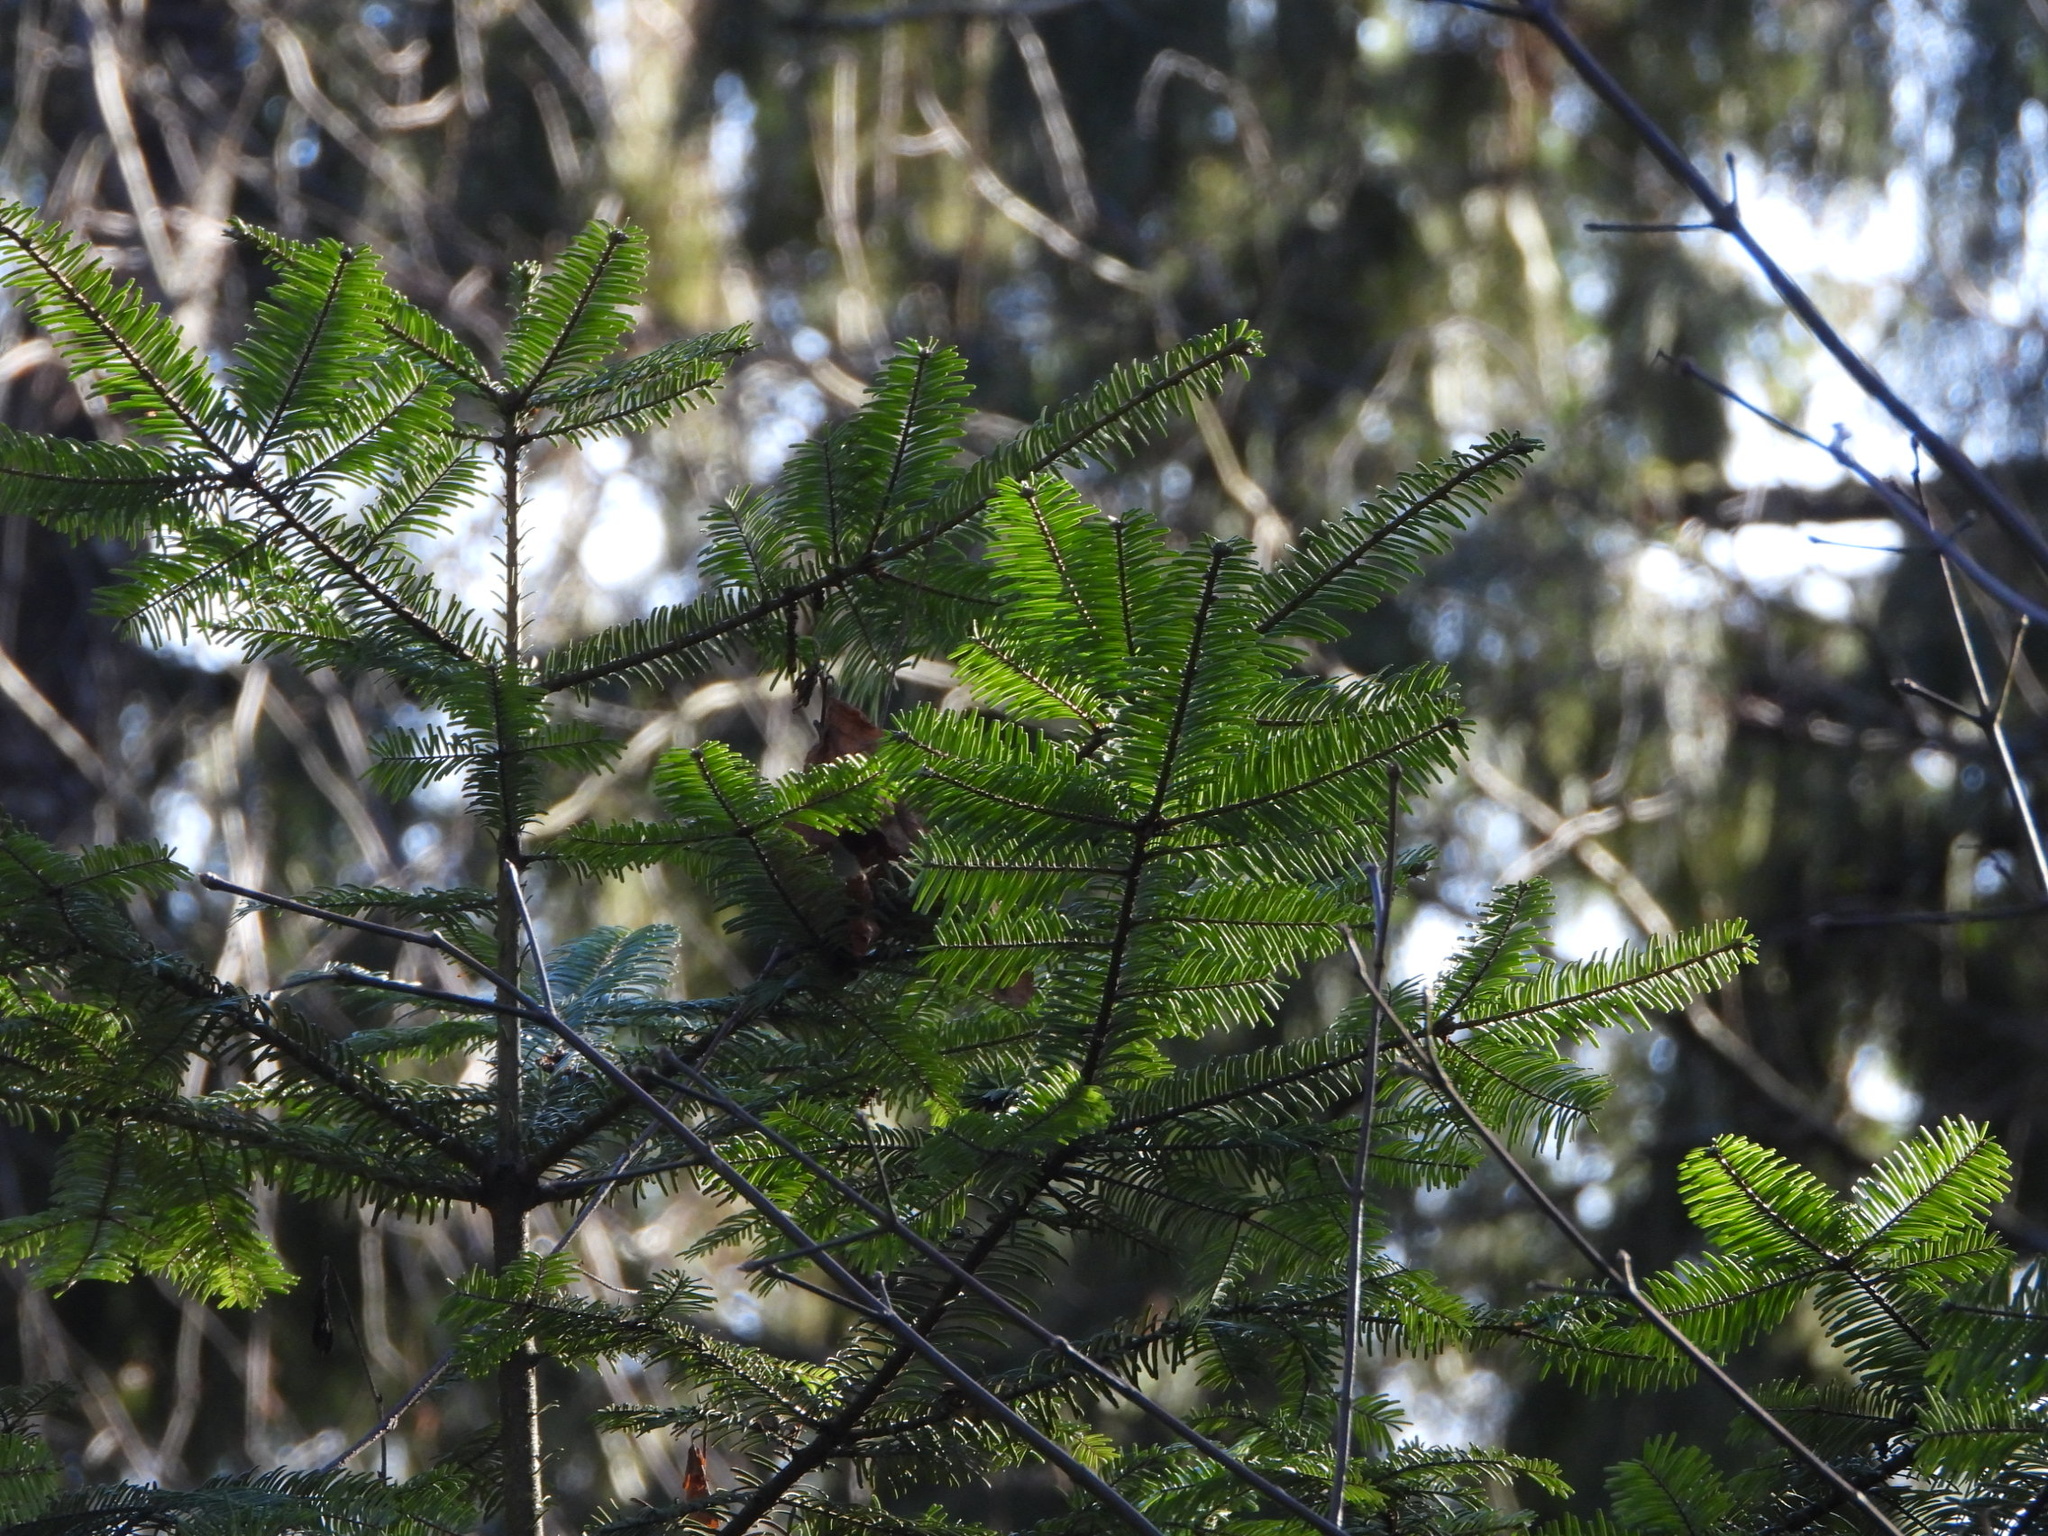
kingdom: Plantae
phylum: Tracheophyta
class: Pinopsida
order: Pinales
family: Pinaceae
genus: Abies
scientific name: Abies grandis
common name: Giant fir
